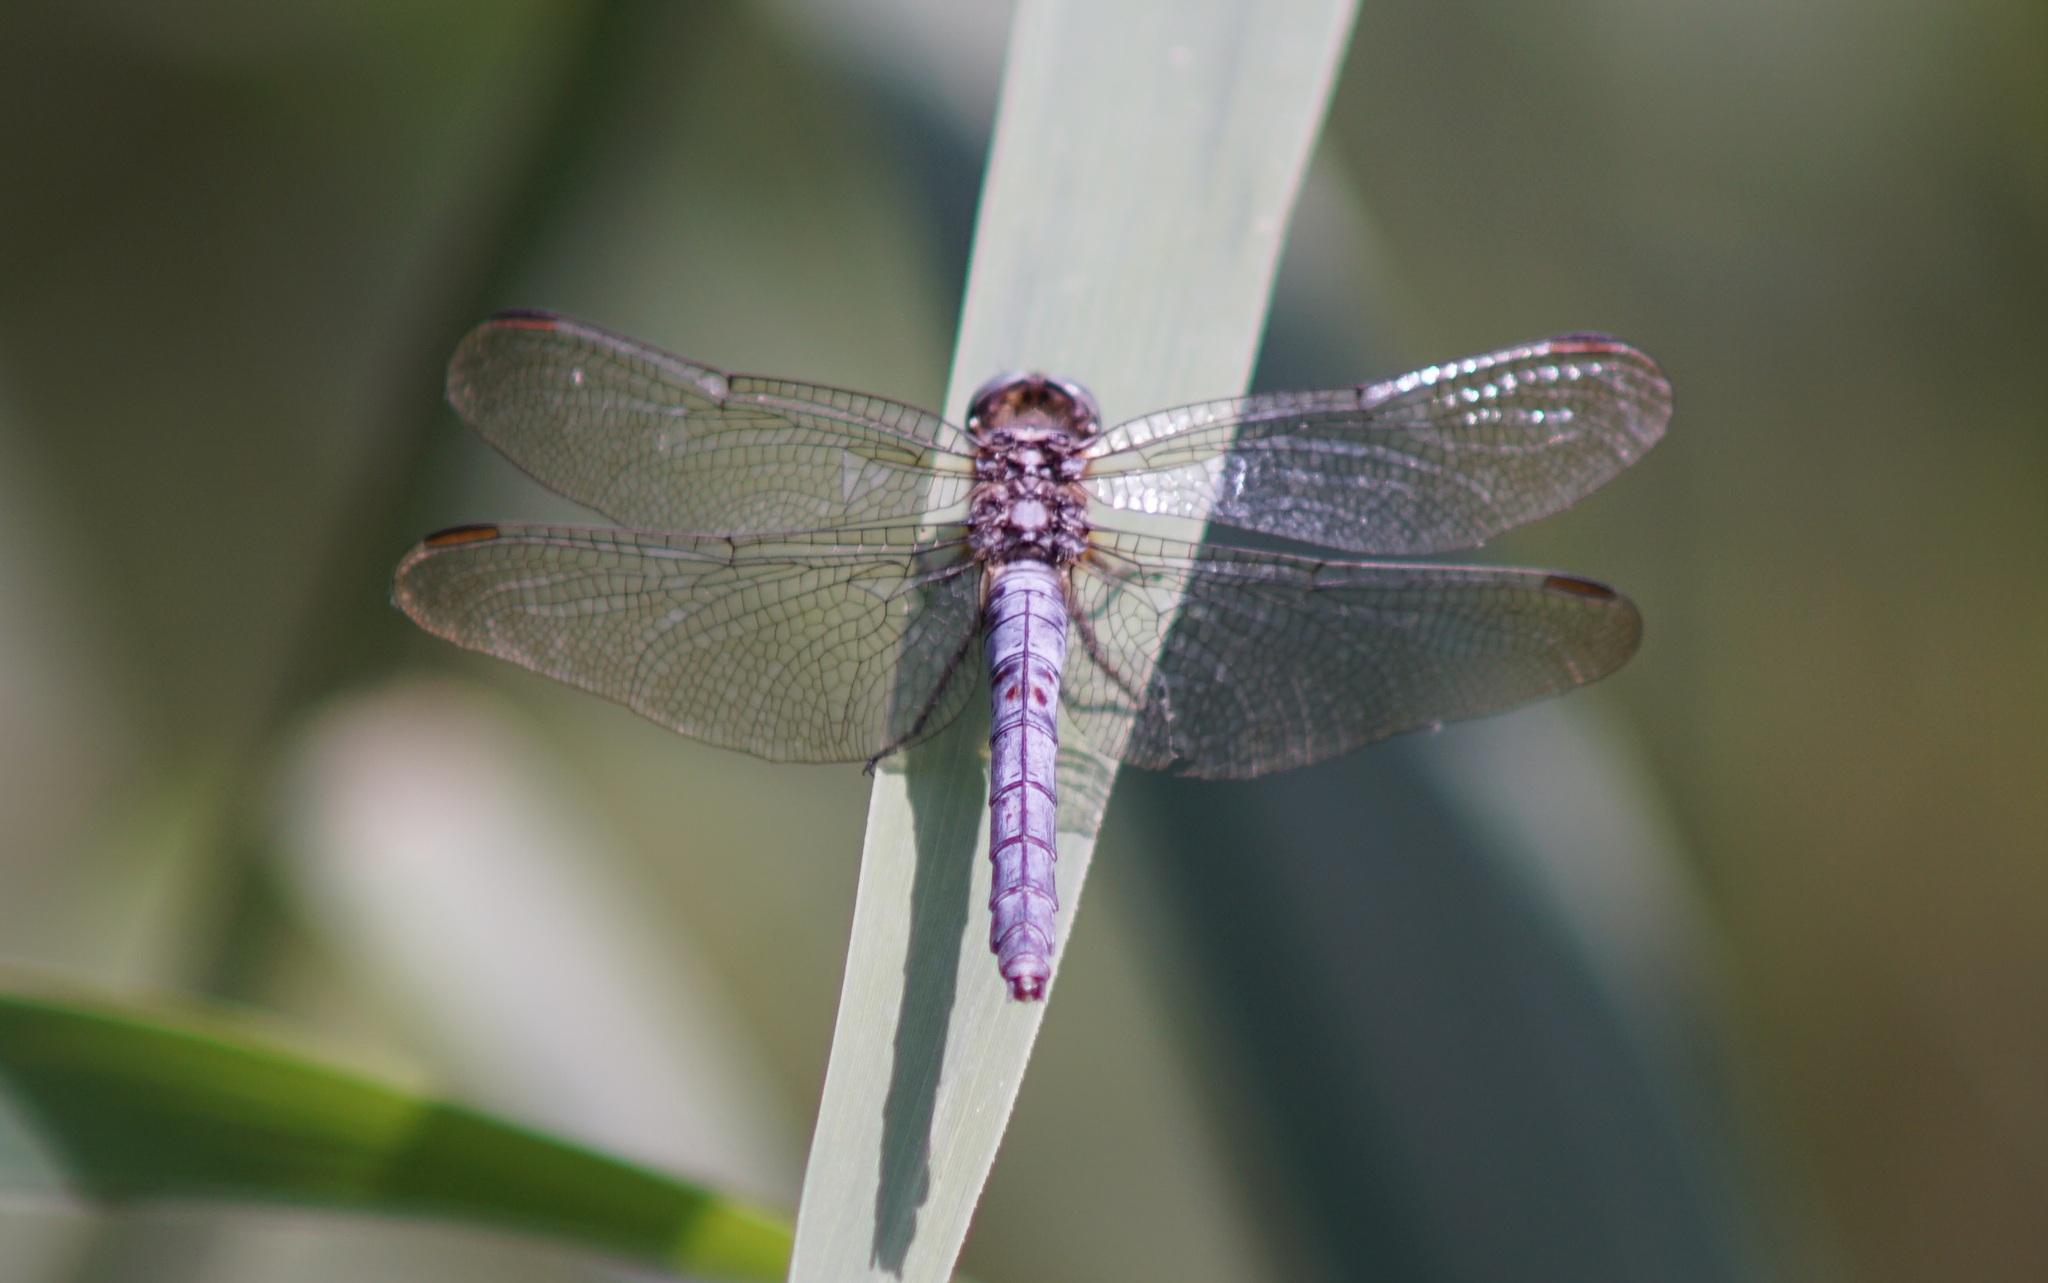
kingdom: Animalia
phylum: Arthropoda
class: Insecta
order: Odonata
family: Libellulidae
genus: Orthetrum
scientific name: Orthetrum coerulescens
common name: Keeled skimmer
